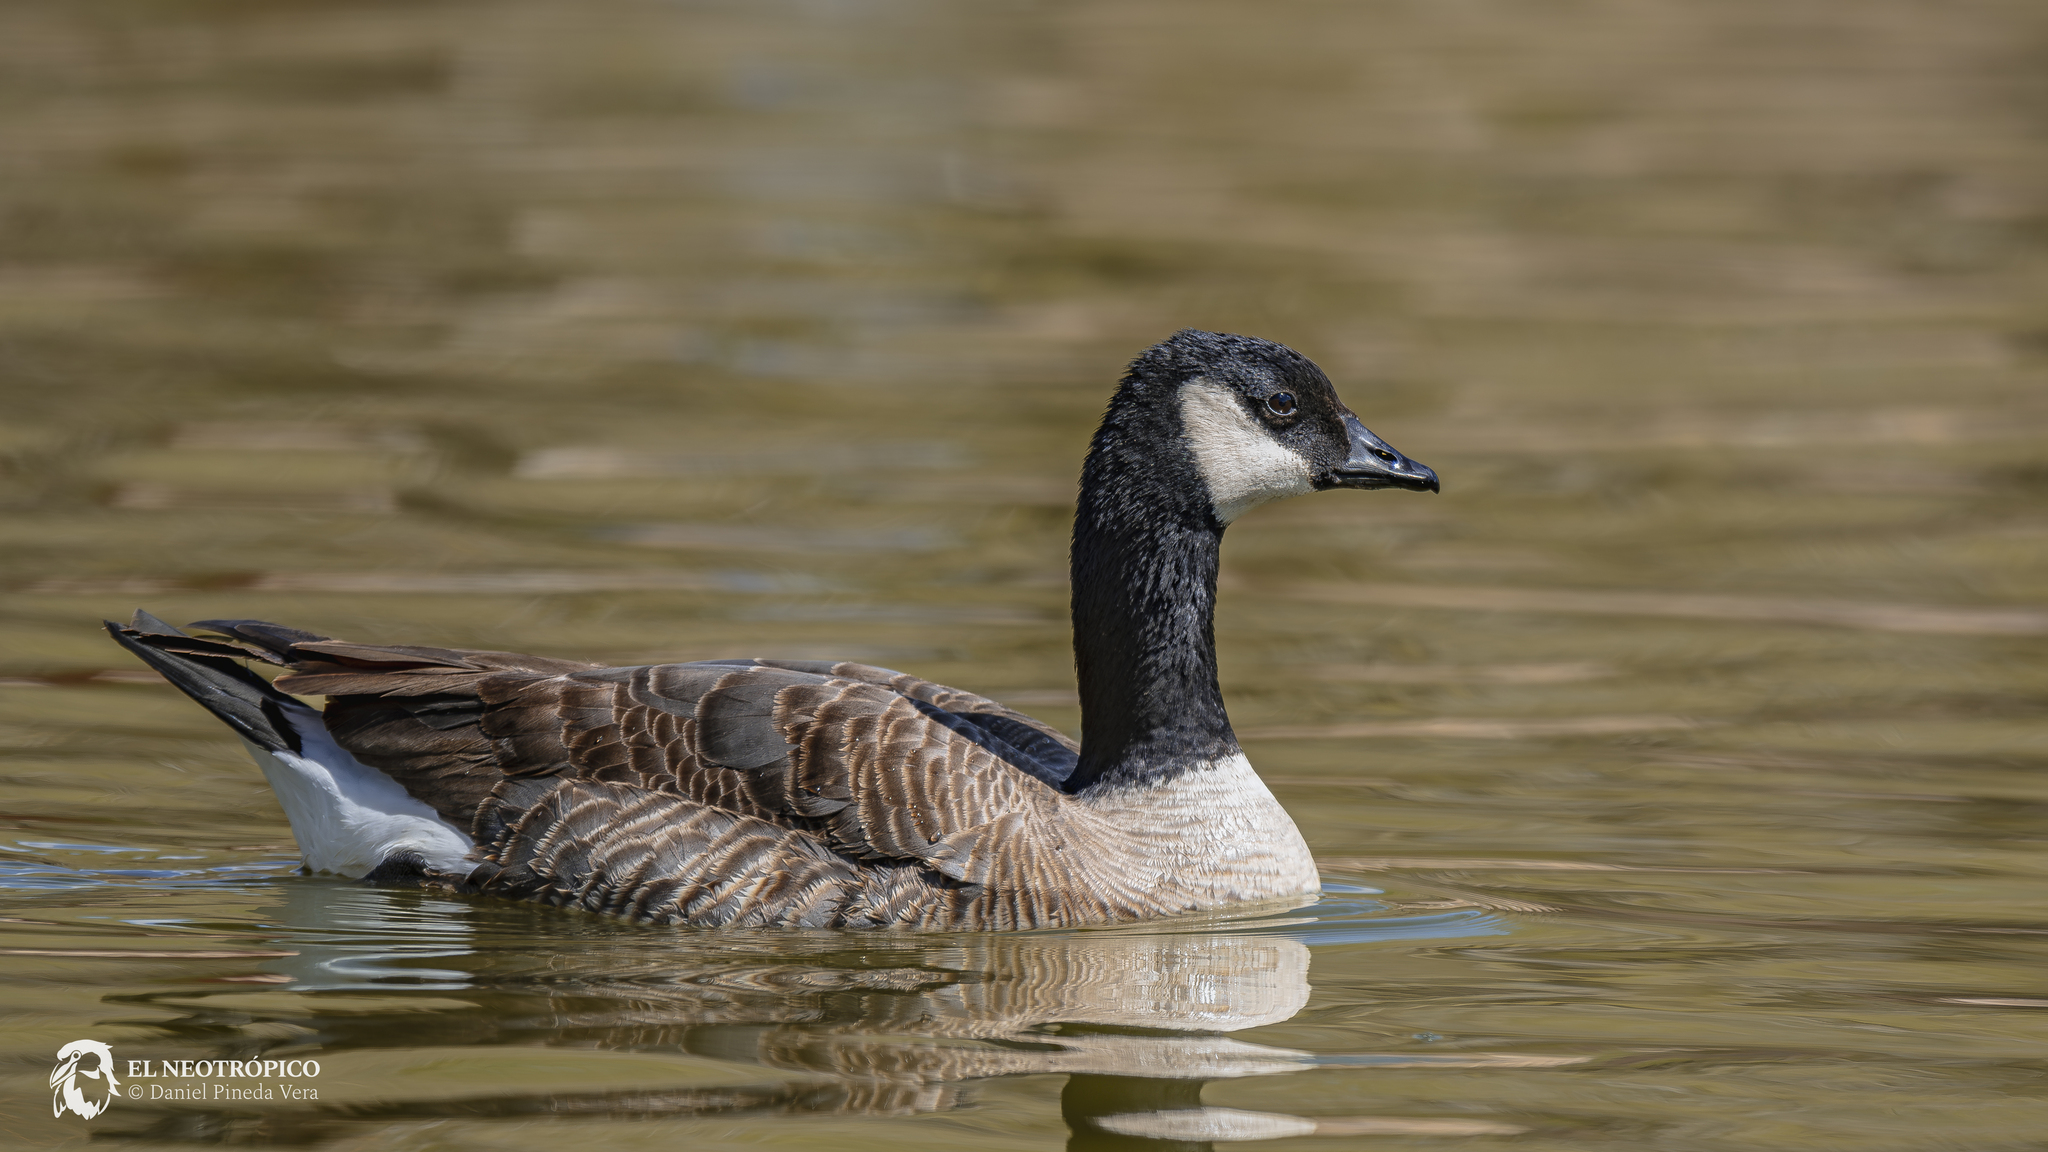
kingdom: Animalia
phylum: Chordata
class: Aves
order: Anseriformes
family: Anatidae
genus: Branta
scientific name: Branta hutchinsii
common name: Cackling goose
